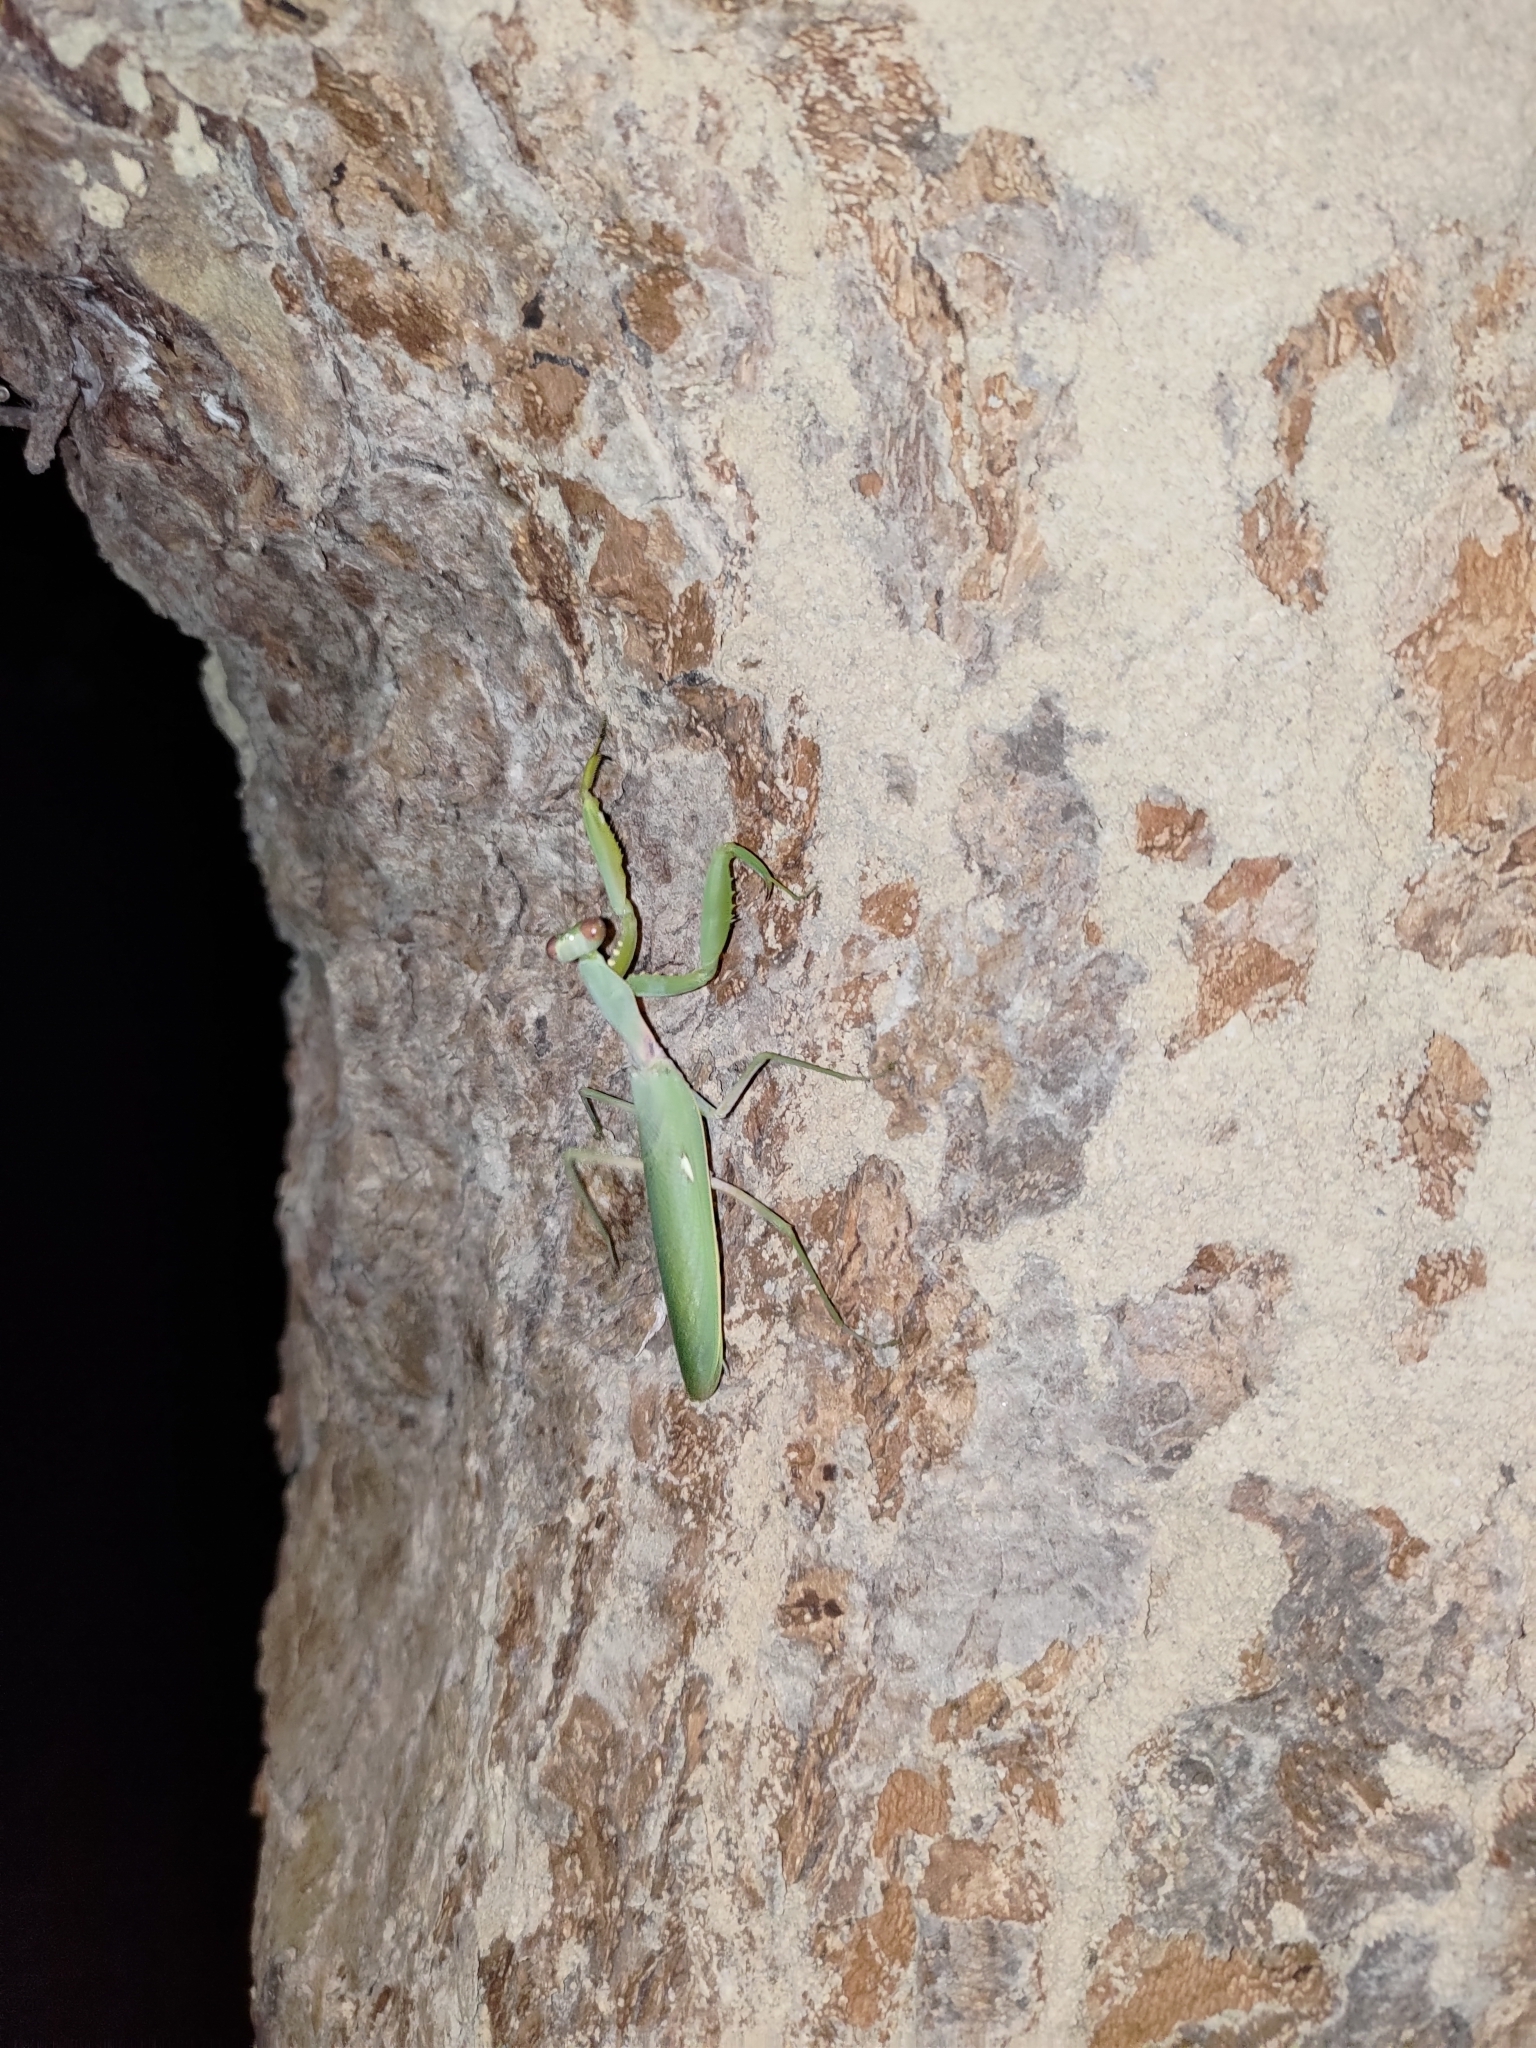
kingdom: Animalia
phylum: Arthropoda
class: Insecta
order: Mantodea
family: Mantidae
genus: Hierodula
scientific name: Hierodula patellifera
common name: Asian mantis
